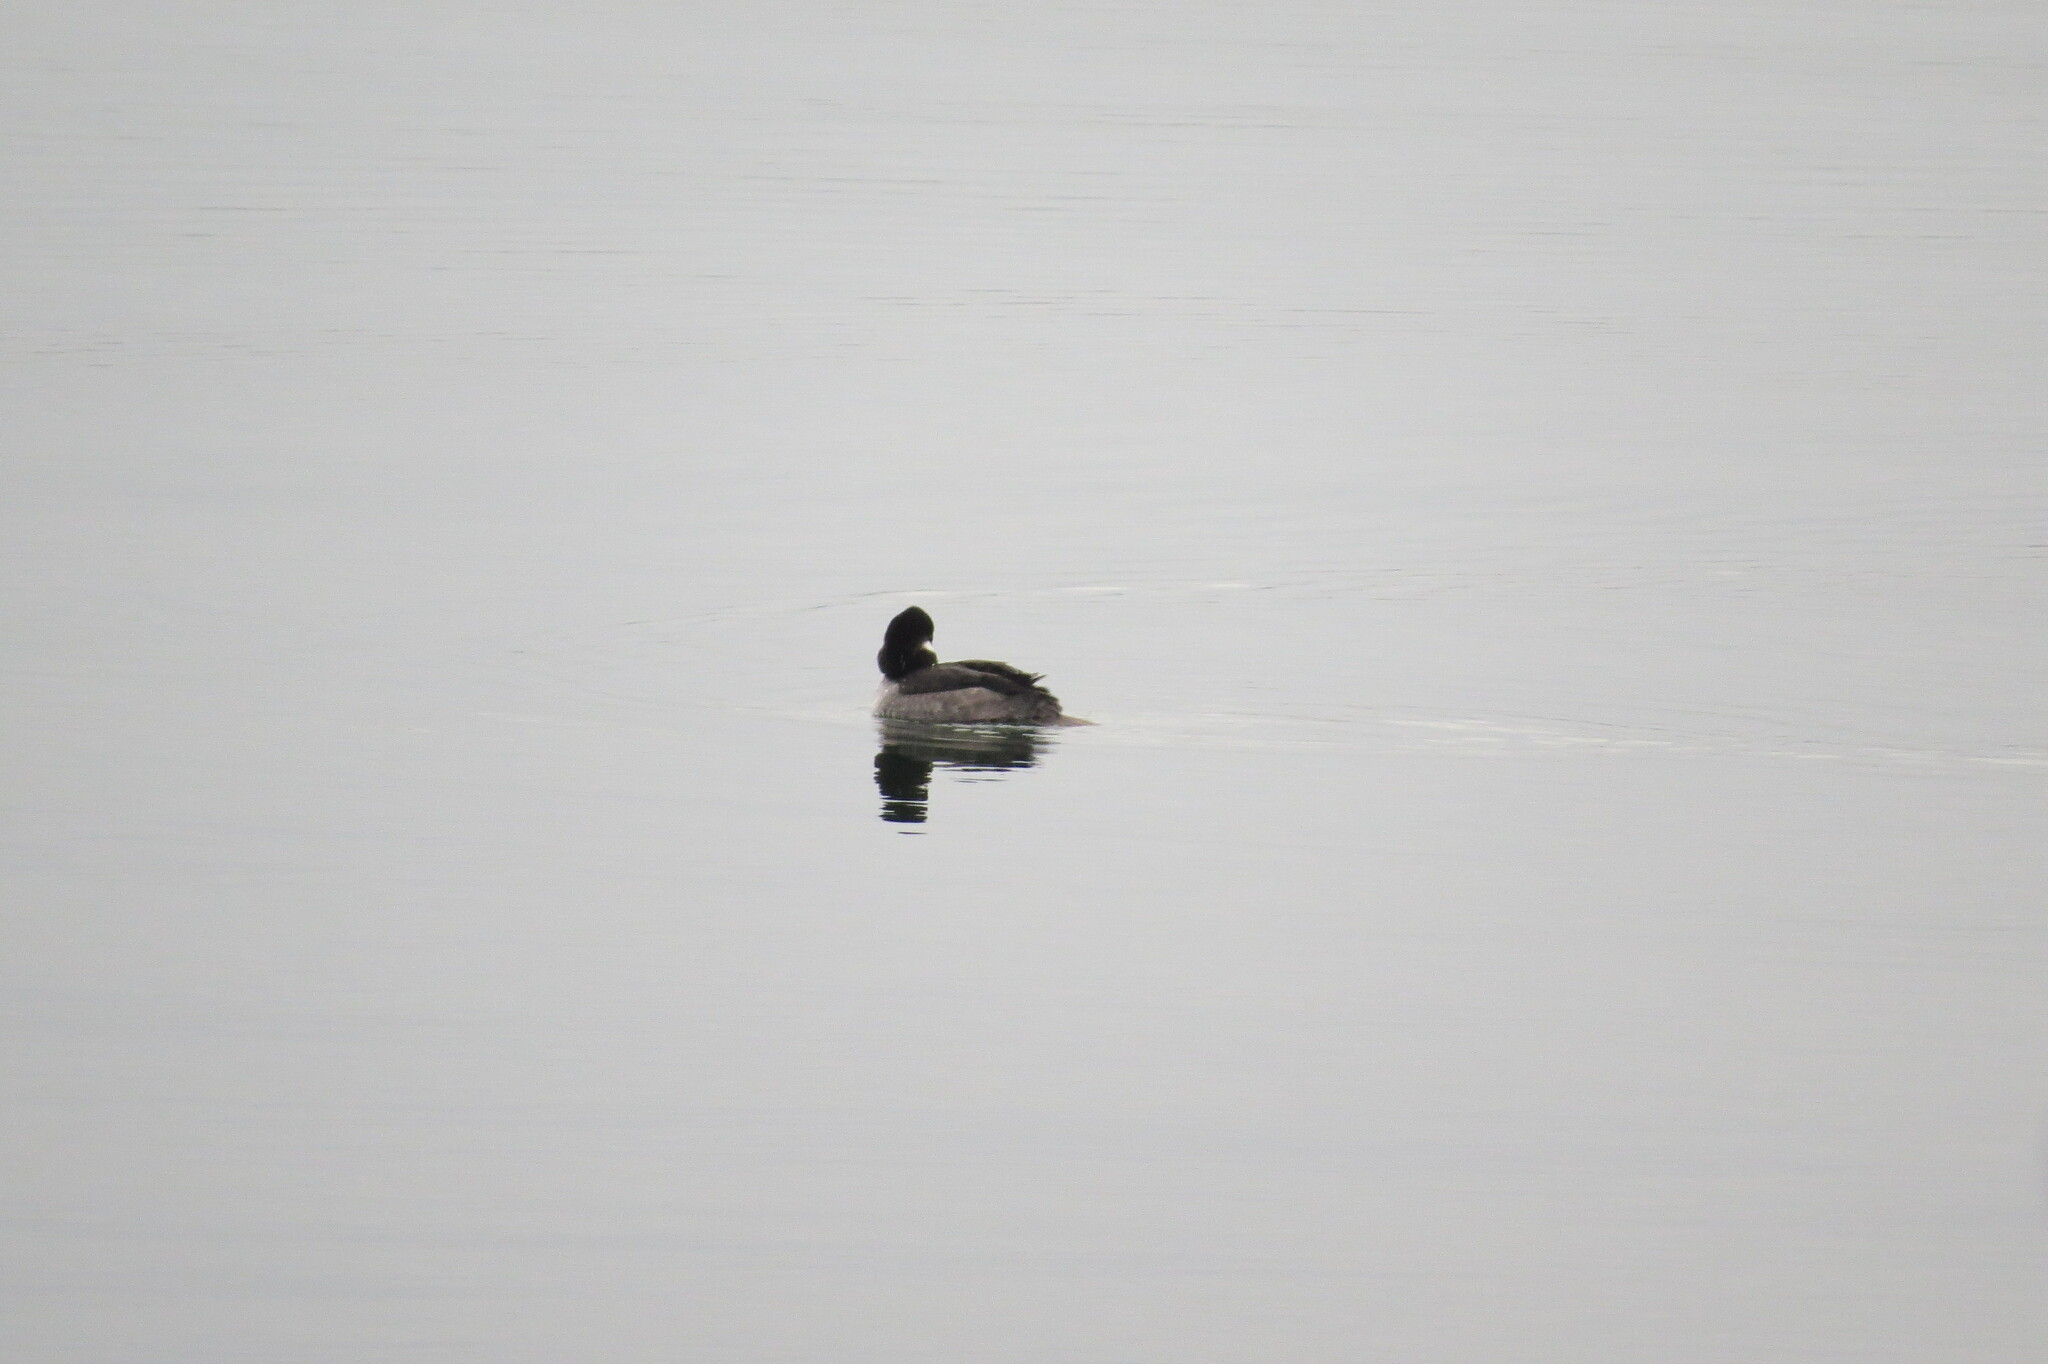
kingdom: Animalia
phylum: Chordata
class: Aves
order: Anseriformes
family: Anatidae
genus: Bucephala
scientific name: Bucephala albeola
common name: Bufflehead
